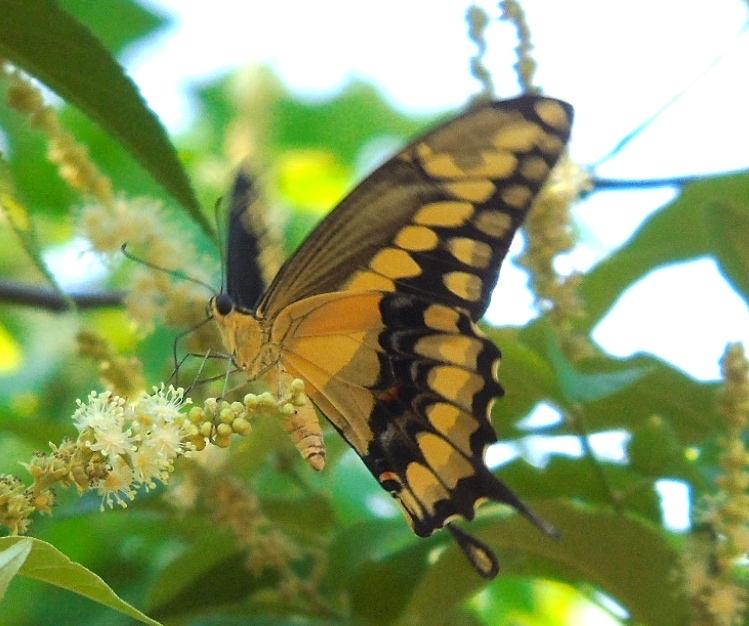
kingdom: Animalia
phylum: Arthropoda
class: Insecta
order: Lepidoptera
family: Papilionidae
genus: Papilio
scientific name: Papilio rumiko
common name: Western giant swallowtail
